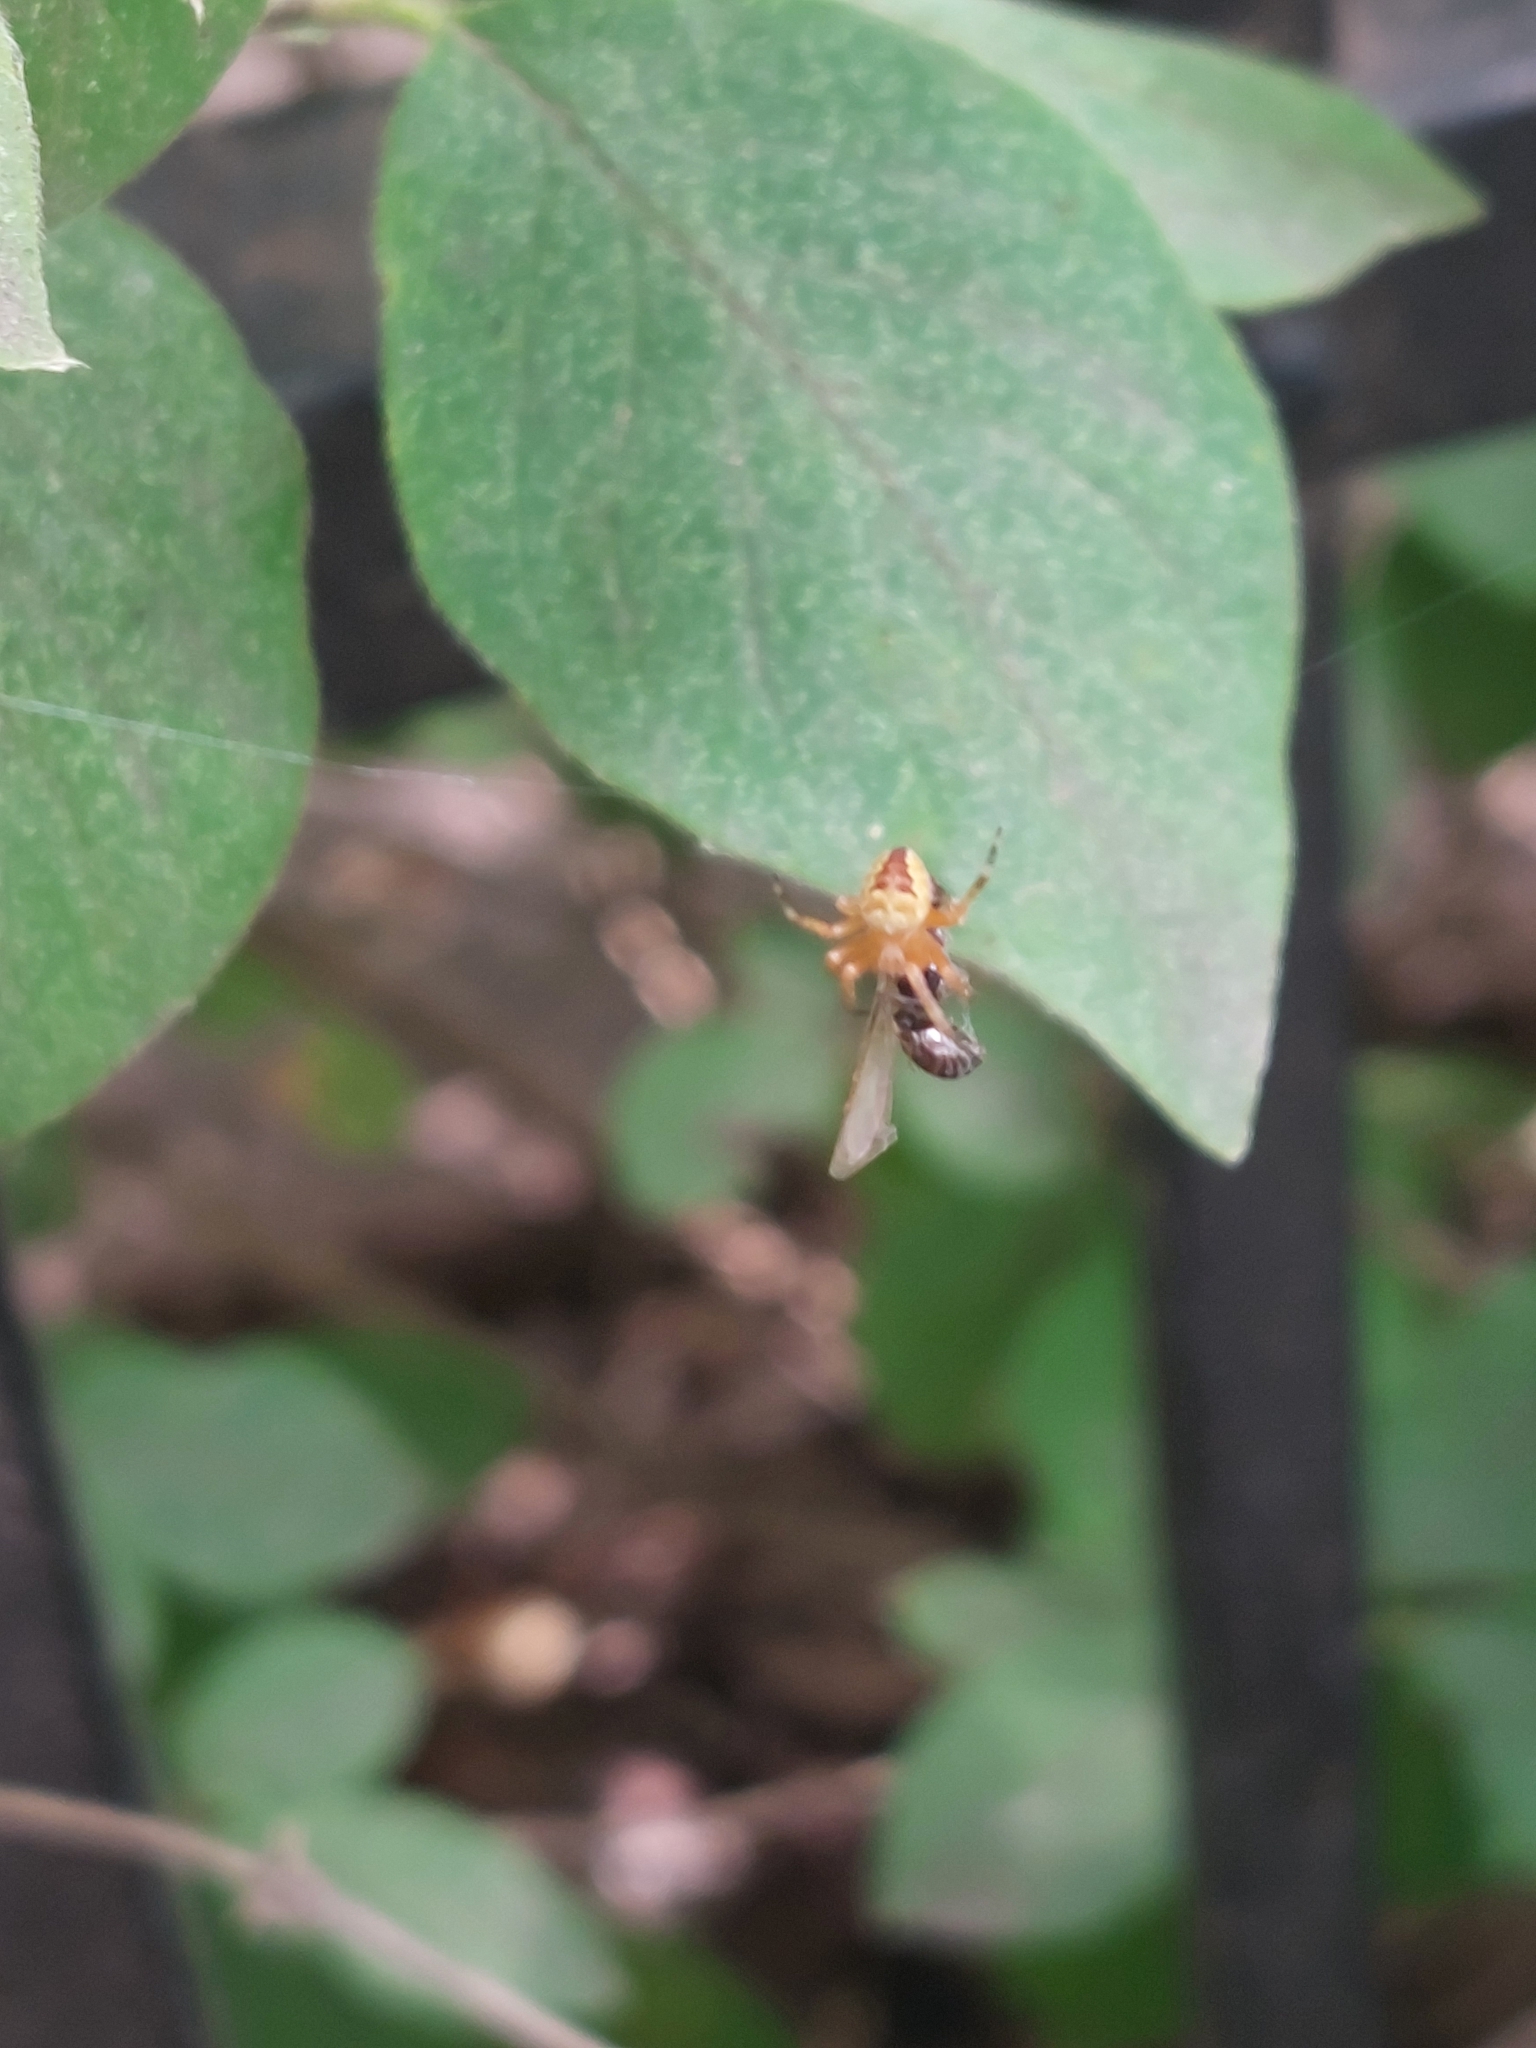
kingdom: Animalia
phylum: Arthropoda
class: Arachnida
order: Araneae
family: Araneidae
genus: Araneus
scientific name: Araneus diadematus
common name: Cross orbweaver
